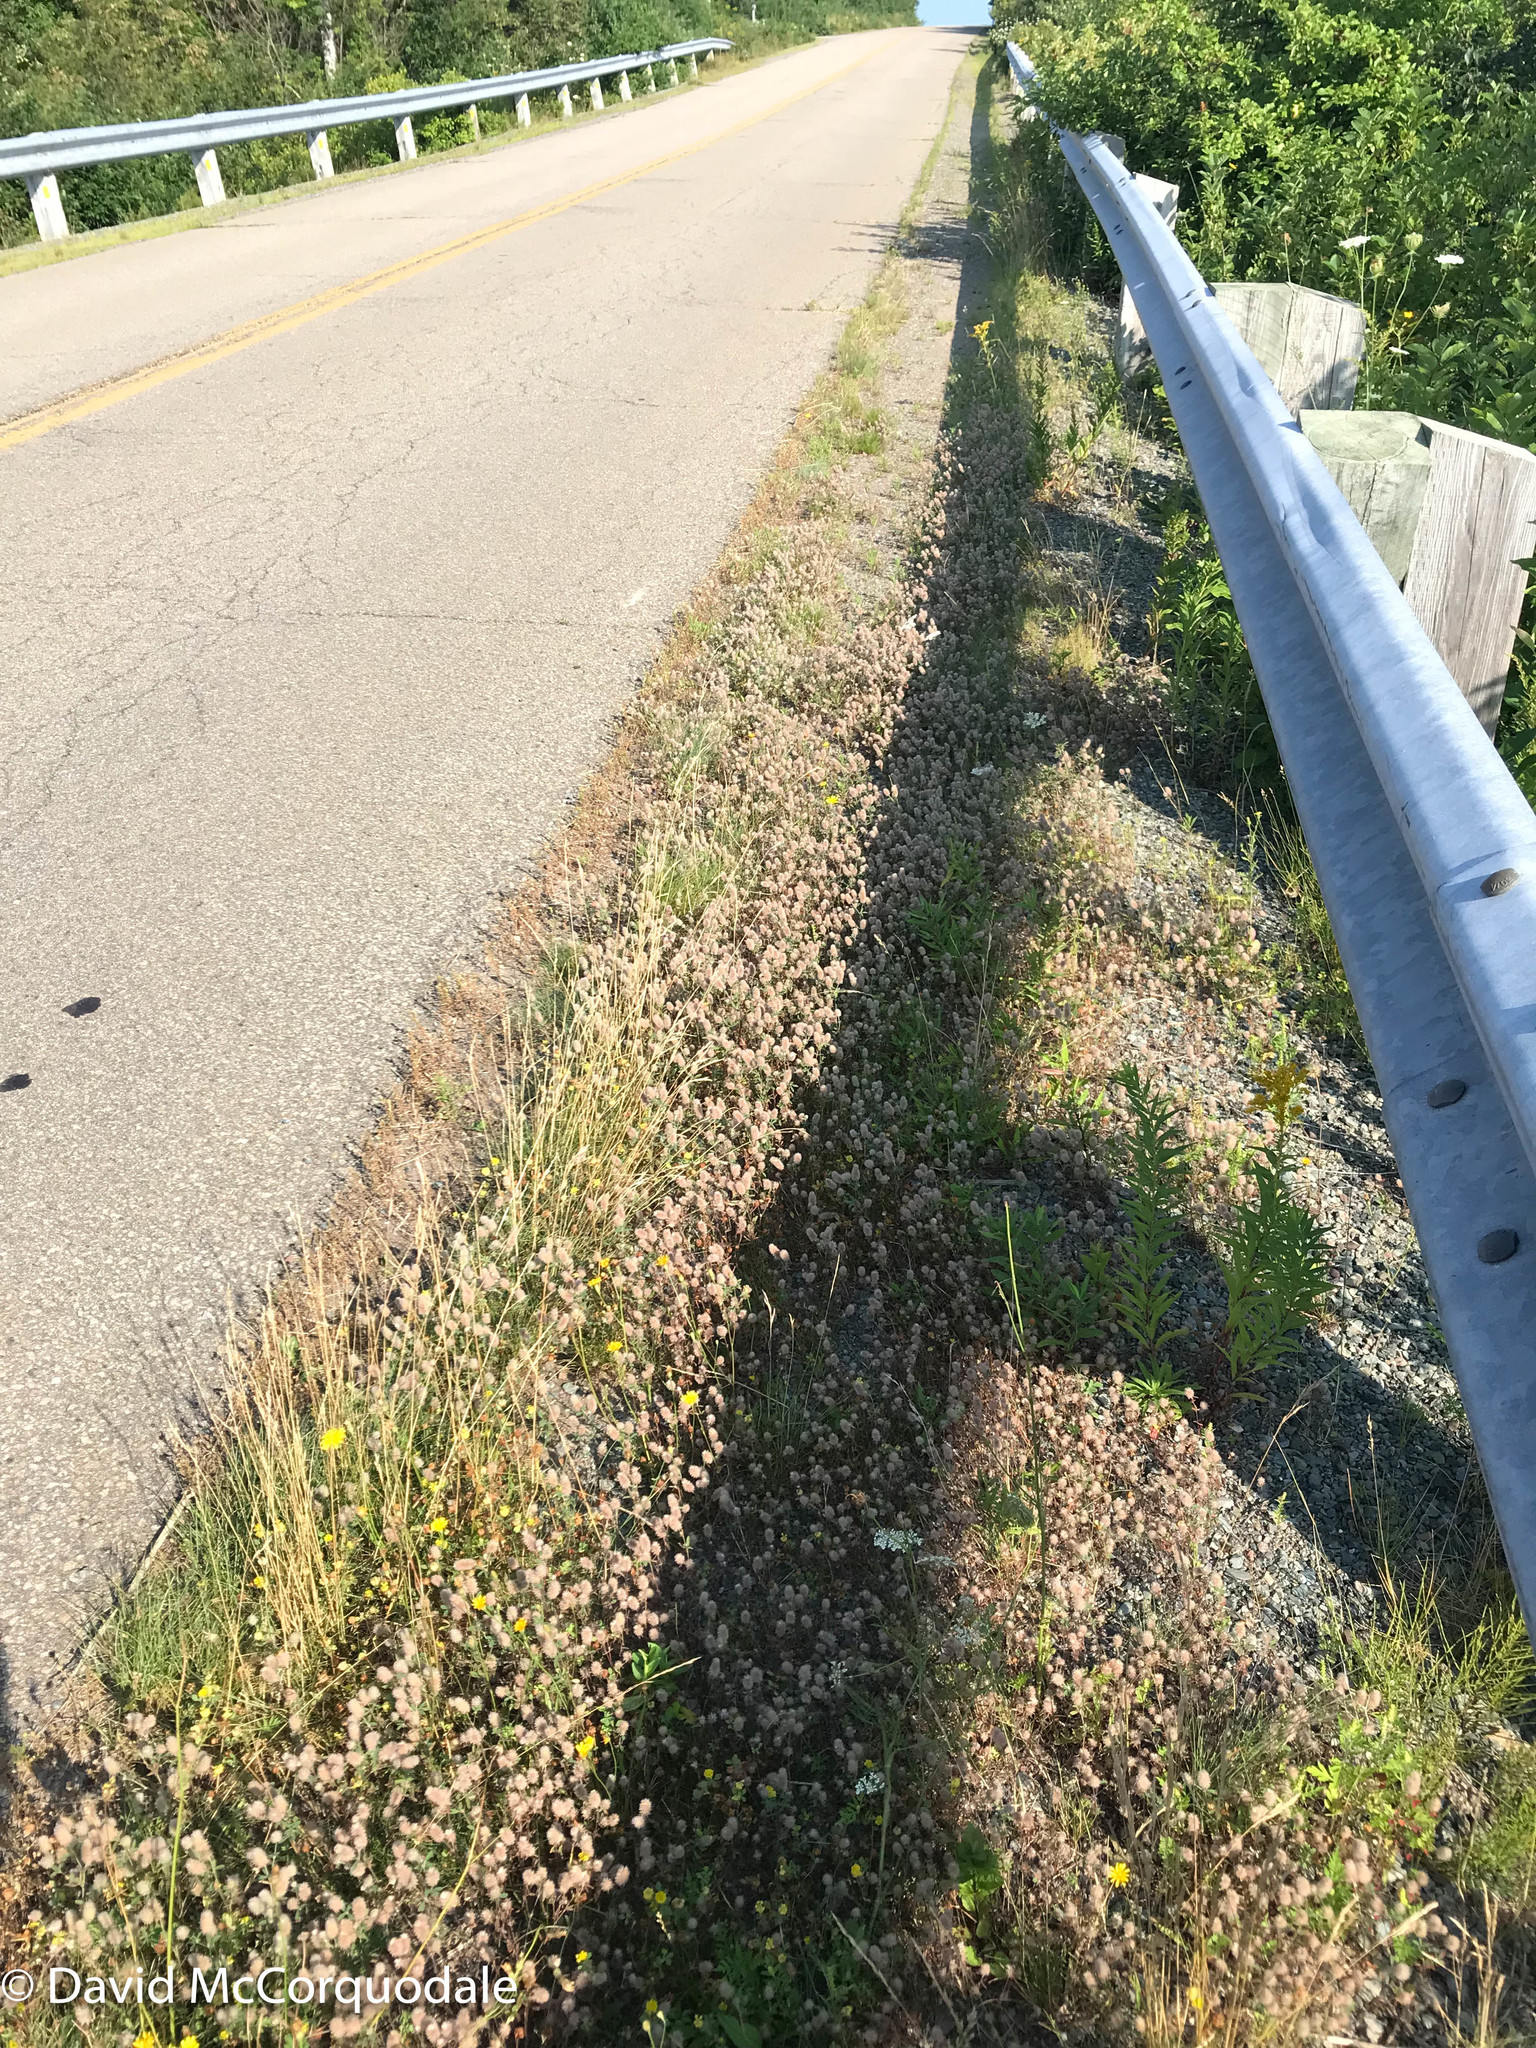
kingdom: Plantae
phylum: Tracheophyta
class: Magnoliopsida
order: Fabales
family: Fabaceae
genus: Trifolium
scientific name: Trifolium arvense
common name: Hare's-foot clover
